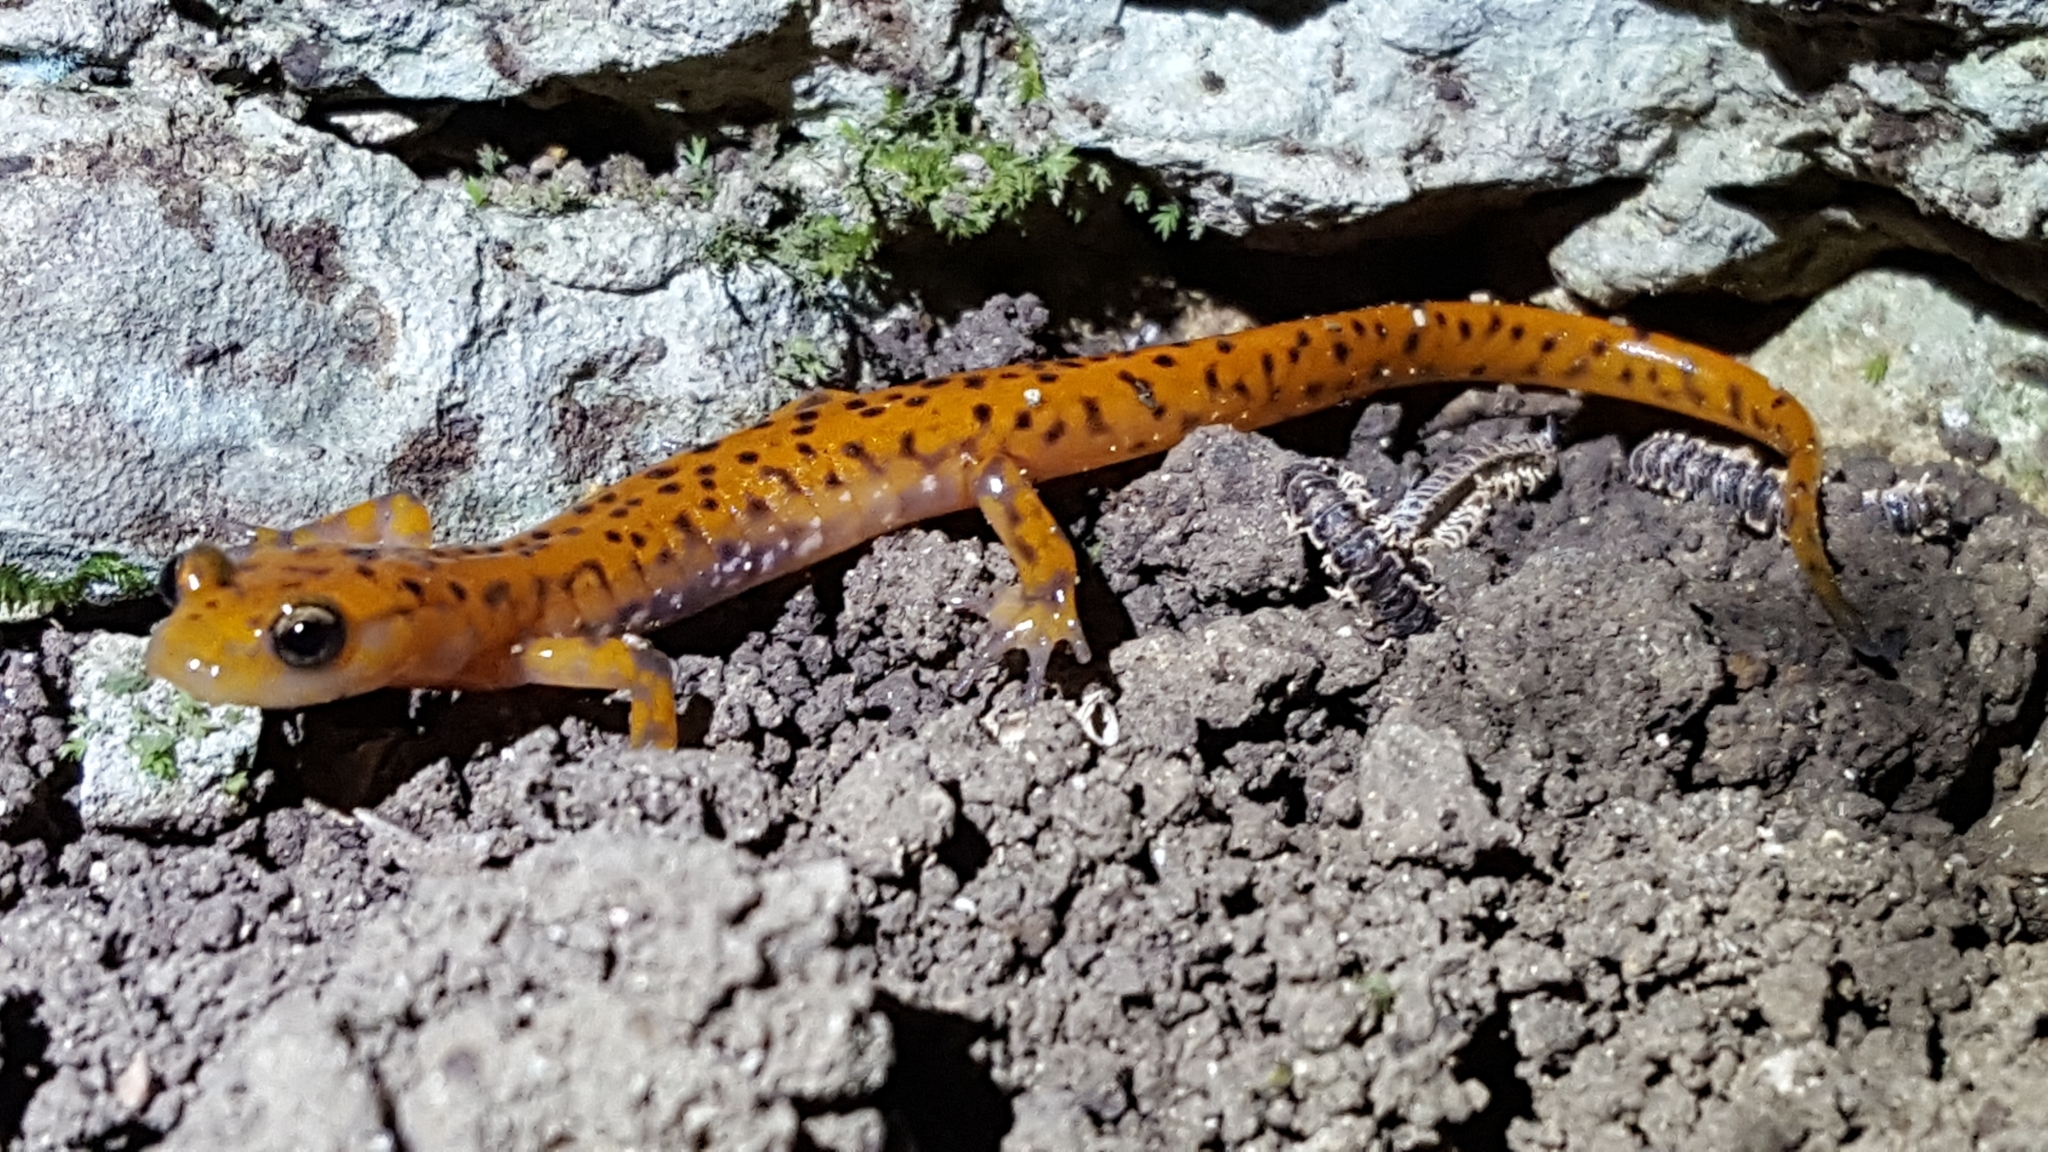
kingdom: Animalia
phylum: Chordata
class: Amphibia
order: Caudata
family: Plethodontidae
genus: Eurycea
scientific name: Eurycea lucifuga
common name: Cave salamander
